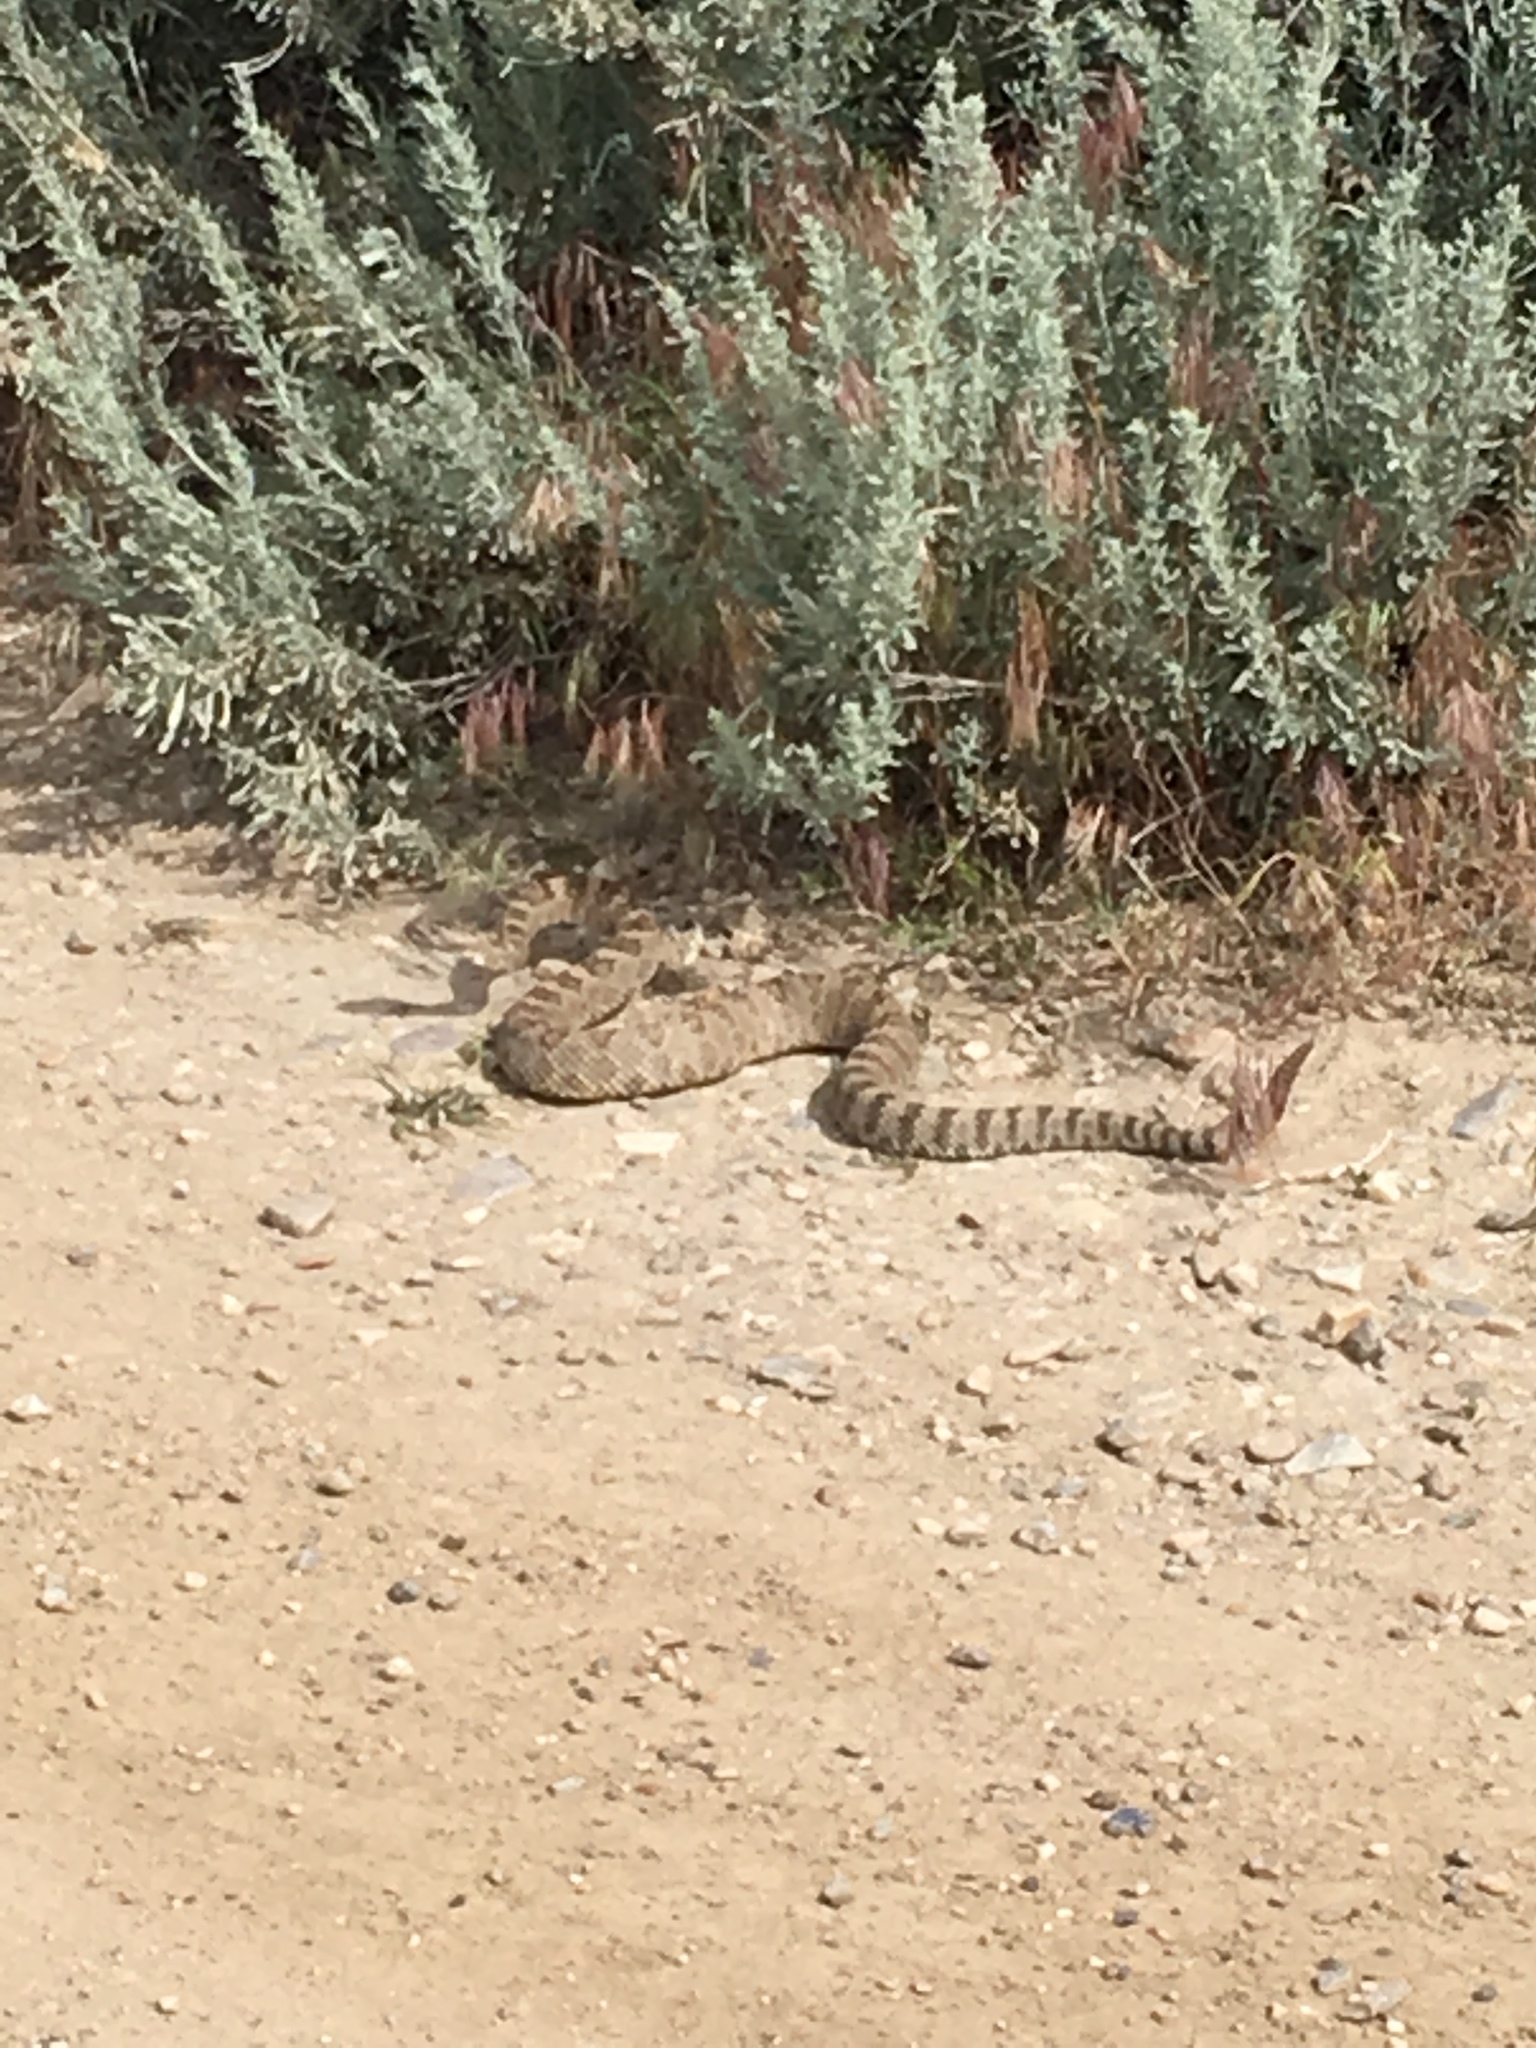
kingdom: Animalia
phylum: Chordata
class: Squamata
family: Viperidae
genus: Crotalus
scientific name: Crotalus oreganus
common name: Abyssus
